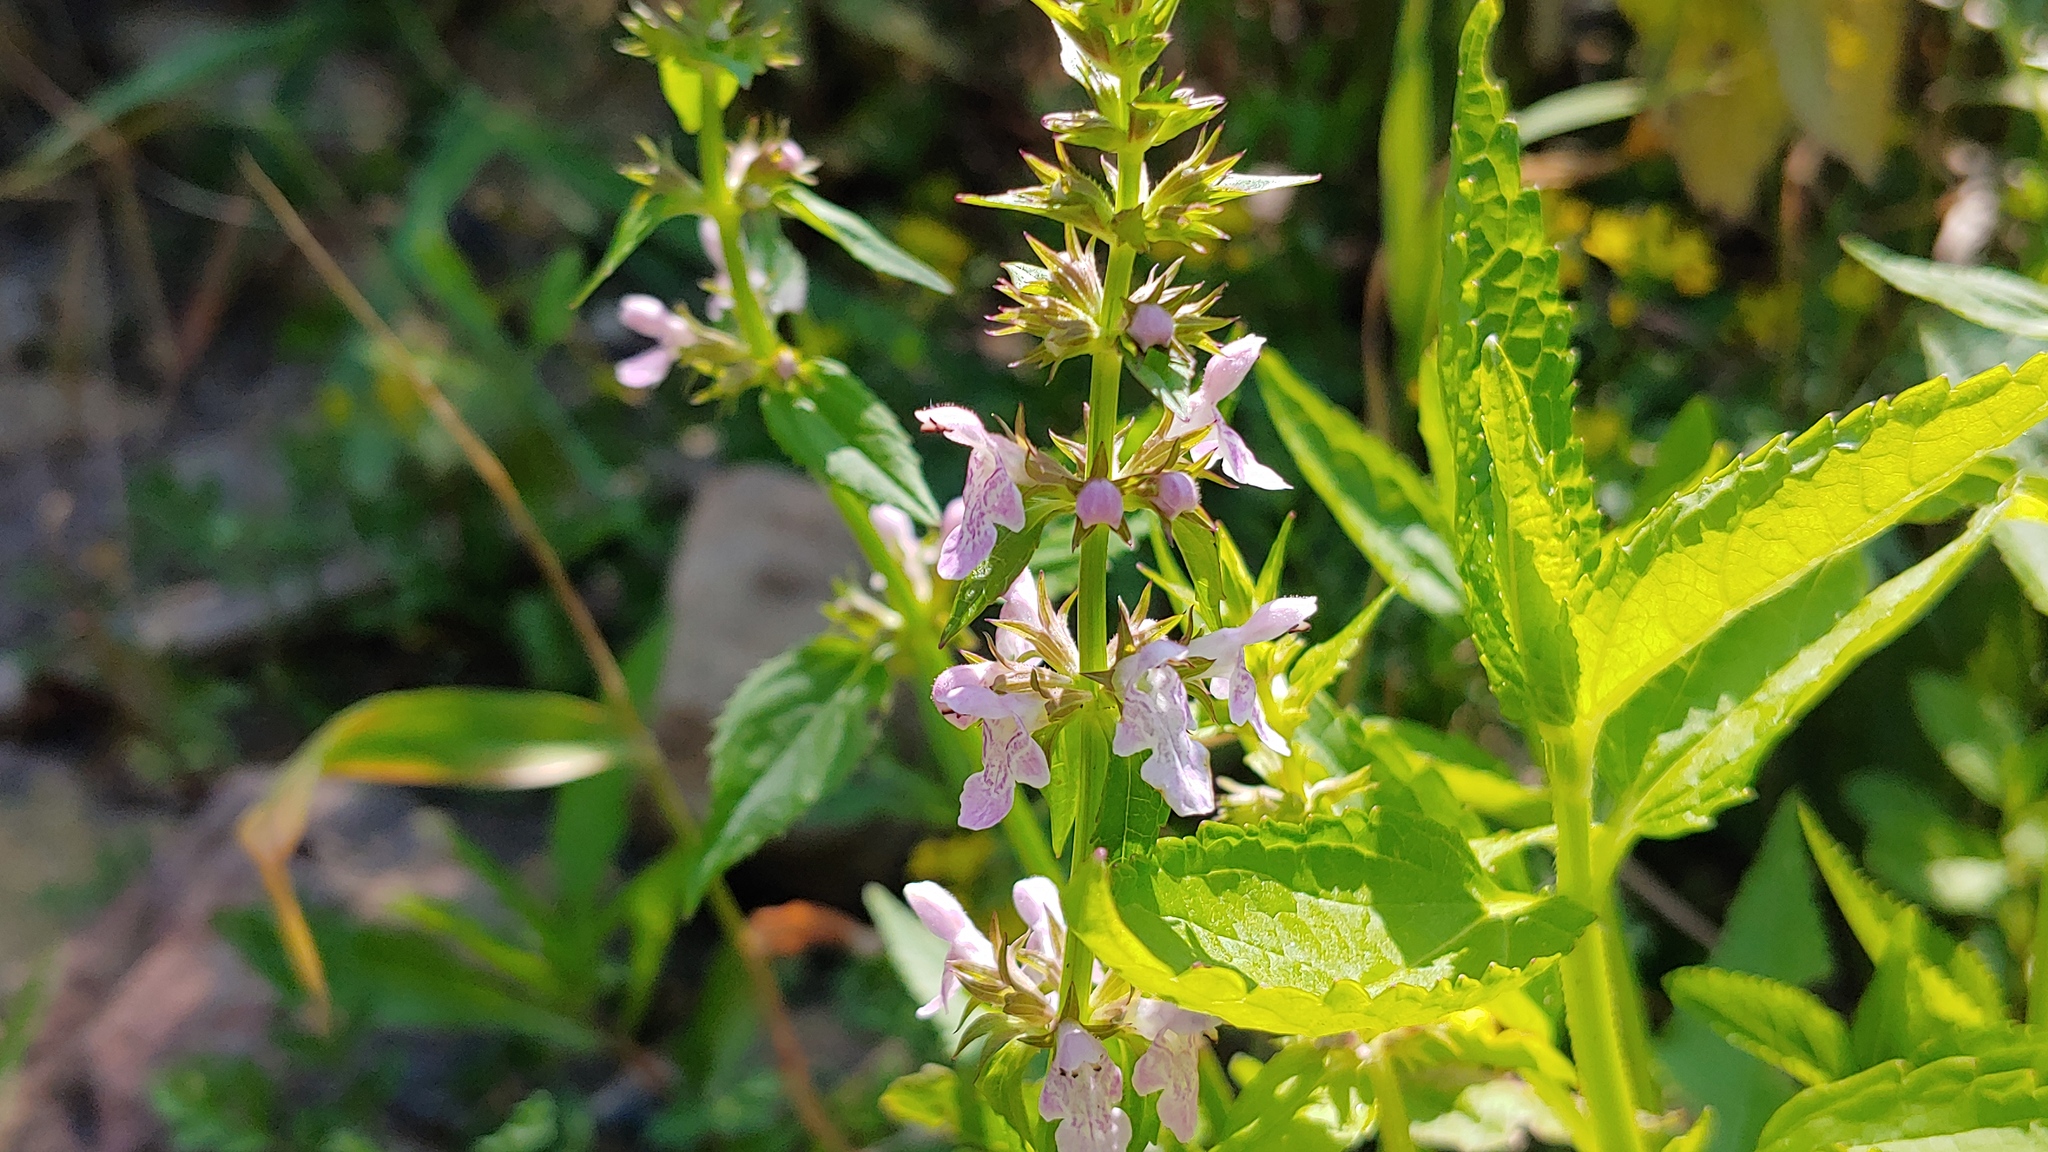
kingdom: Plantae
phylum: Tracheophyta
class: Magnoliopsida
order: Lamiales
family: Lamiaceae
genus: Stachys
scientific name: Stachys tenuifolia
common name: Smooth hedge-nettle
